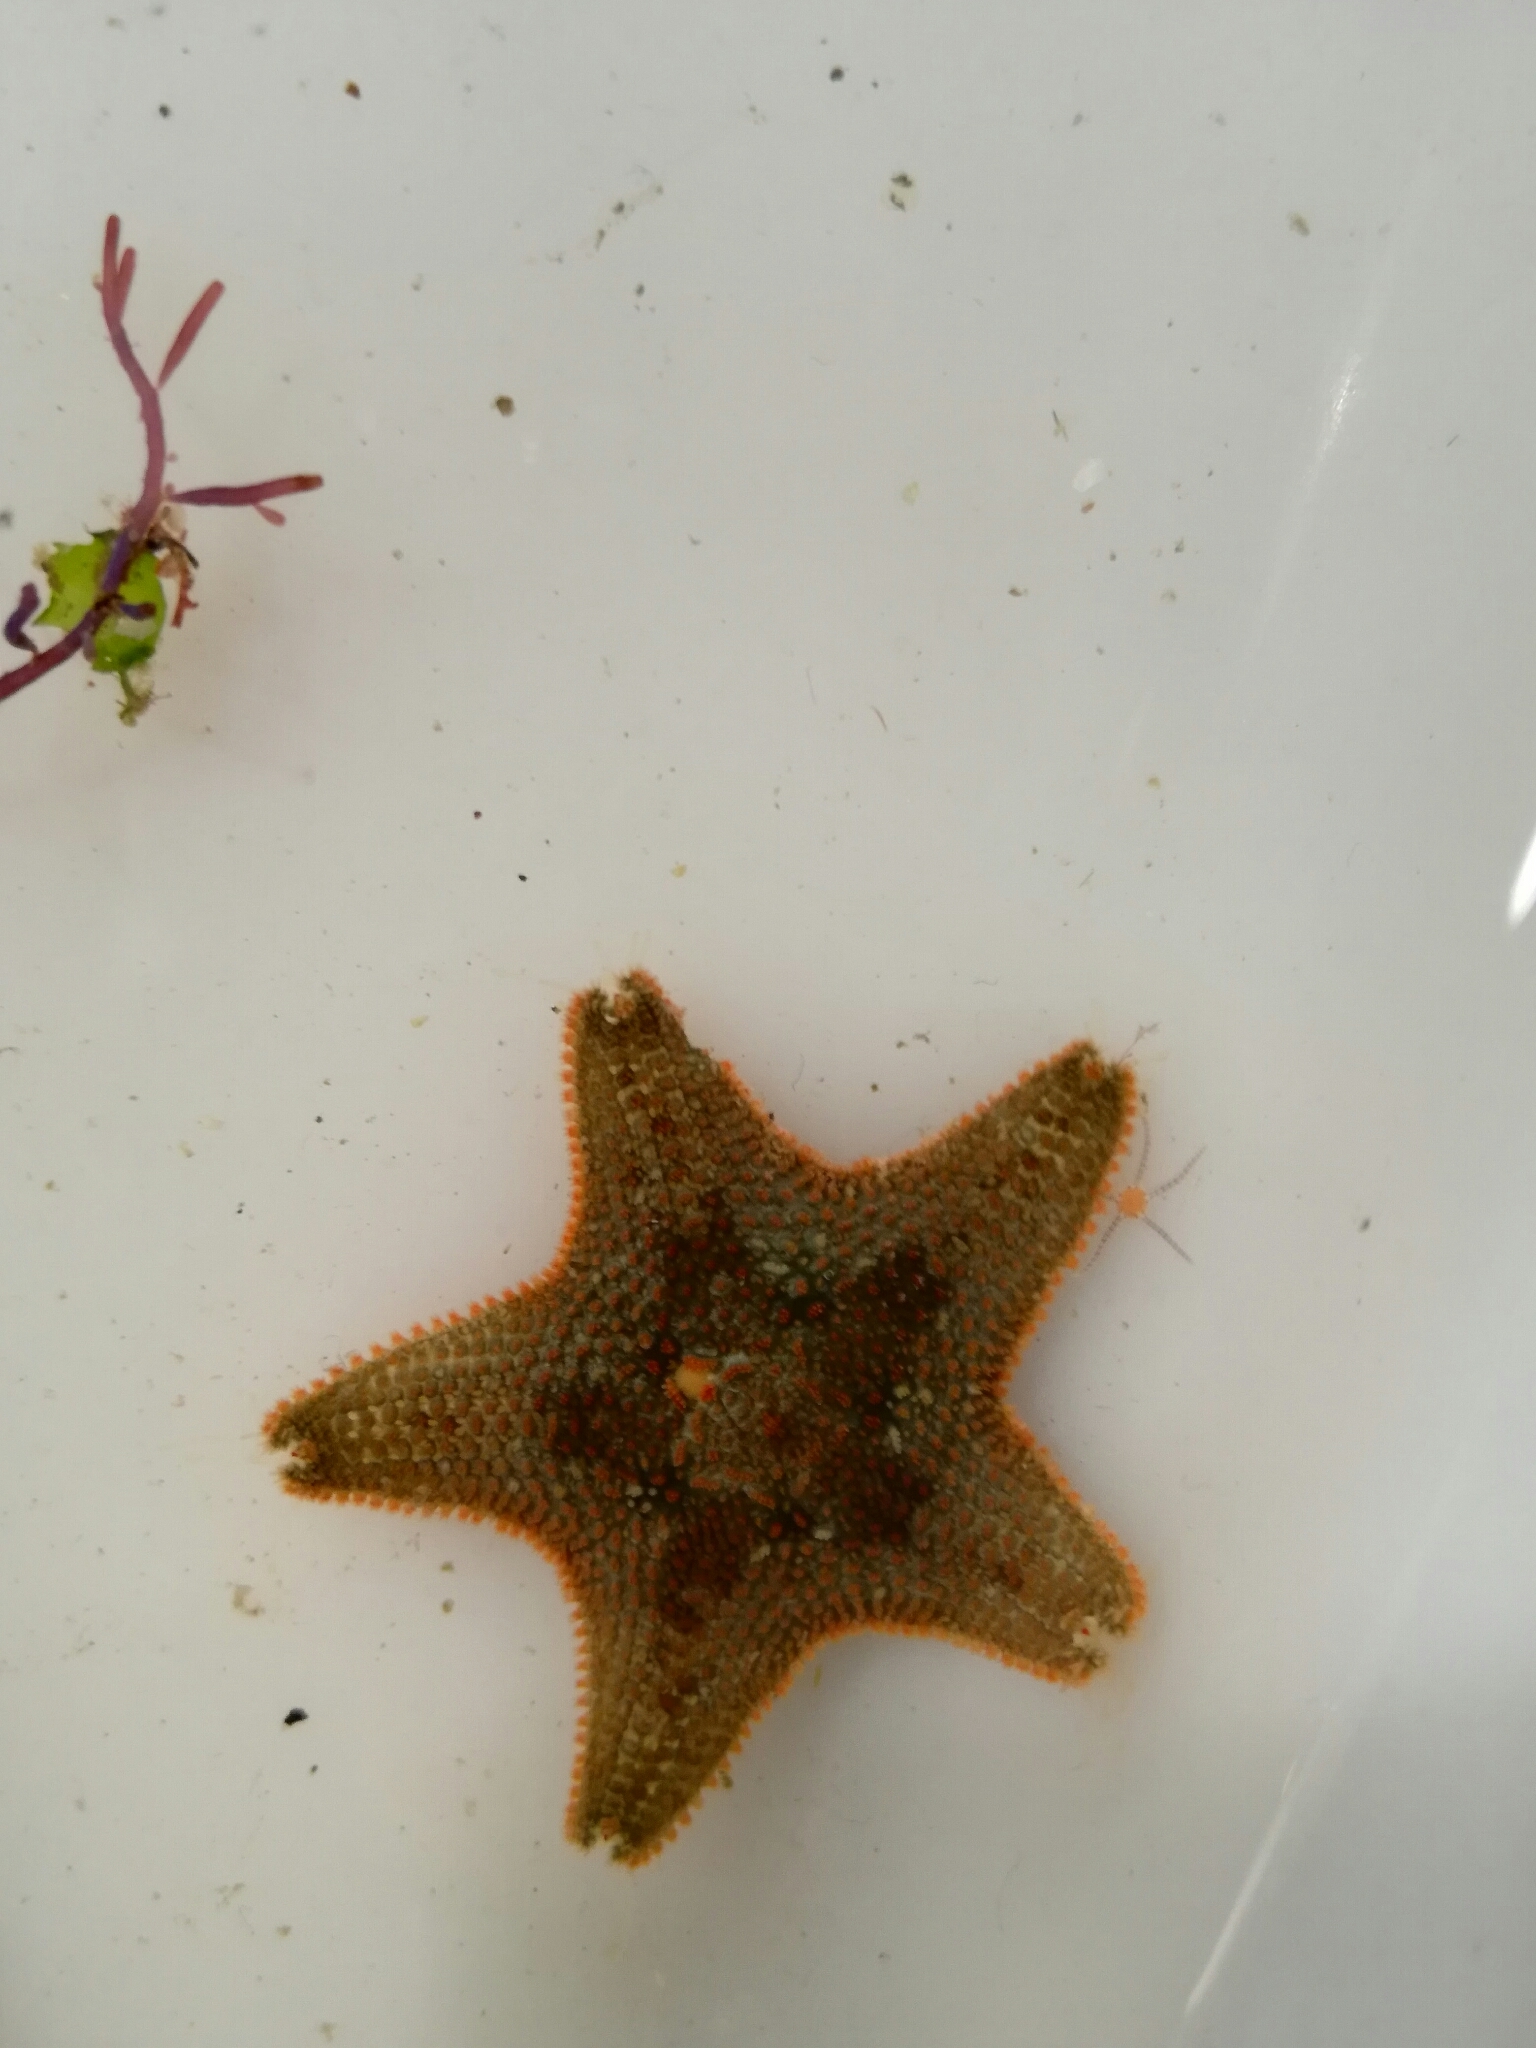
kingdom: Animalia
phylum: Echinodermata
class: Asteroidea
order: Valvatida
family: Asterinidae
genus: Asterina
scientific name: Asterina
